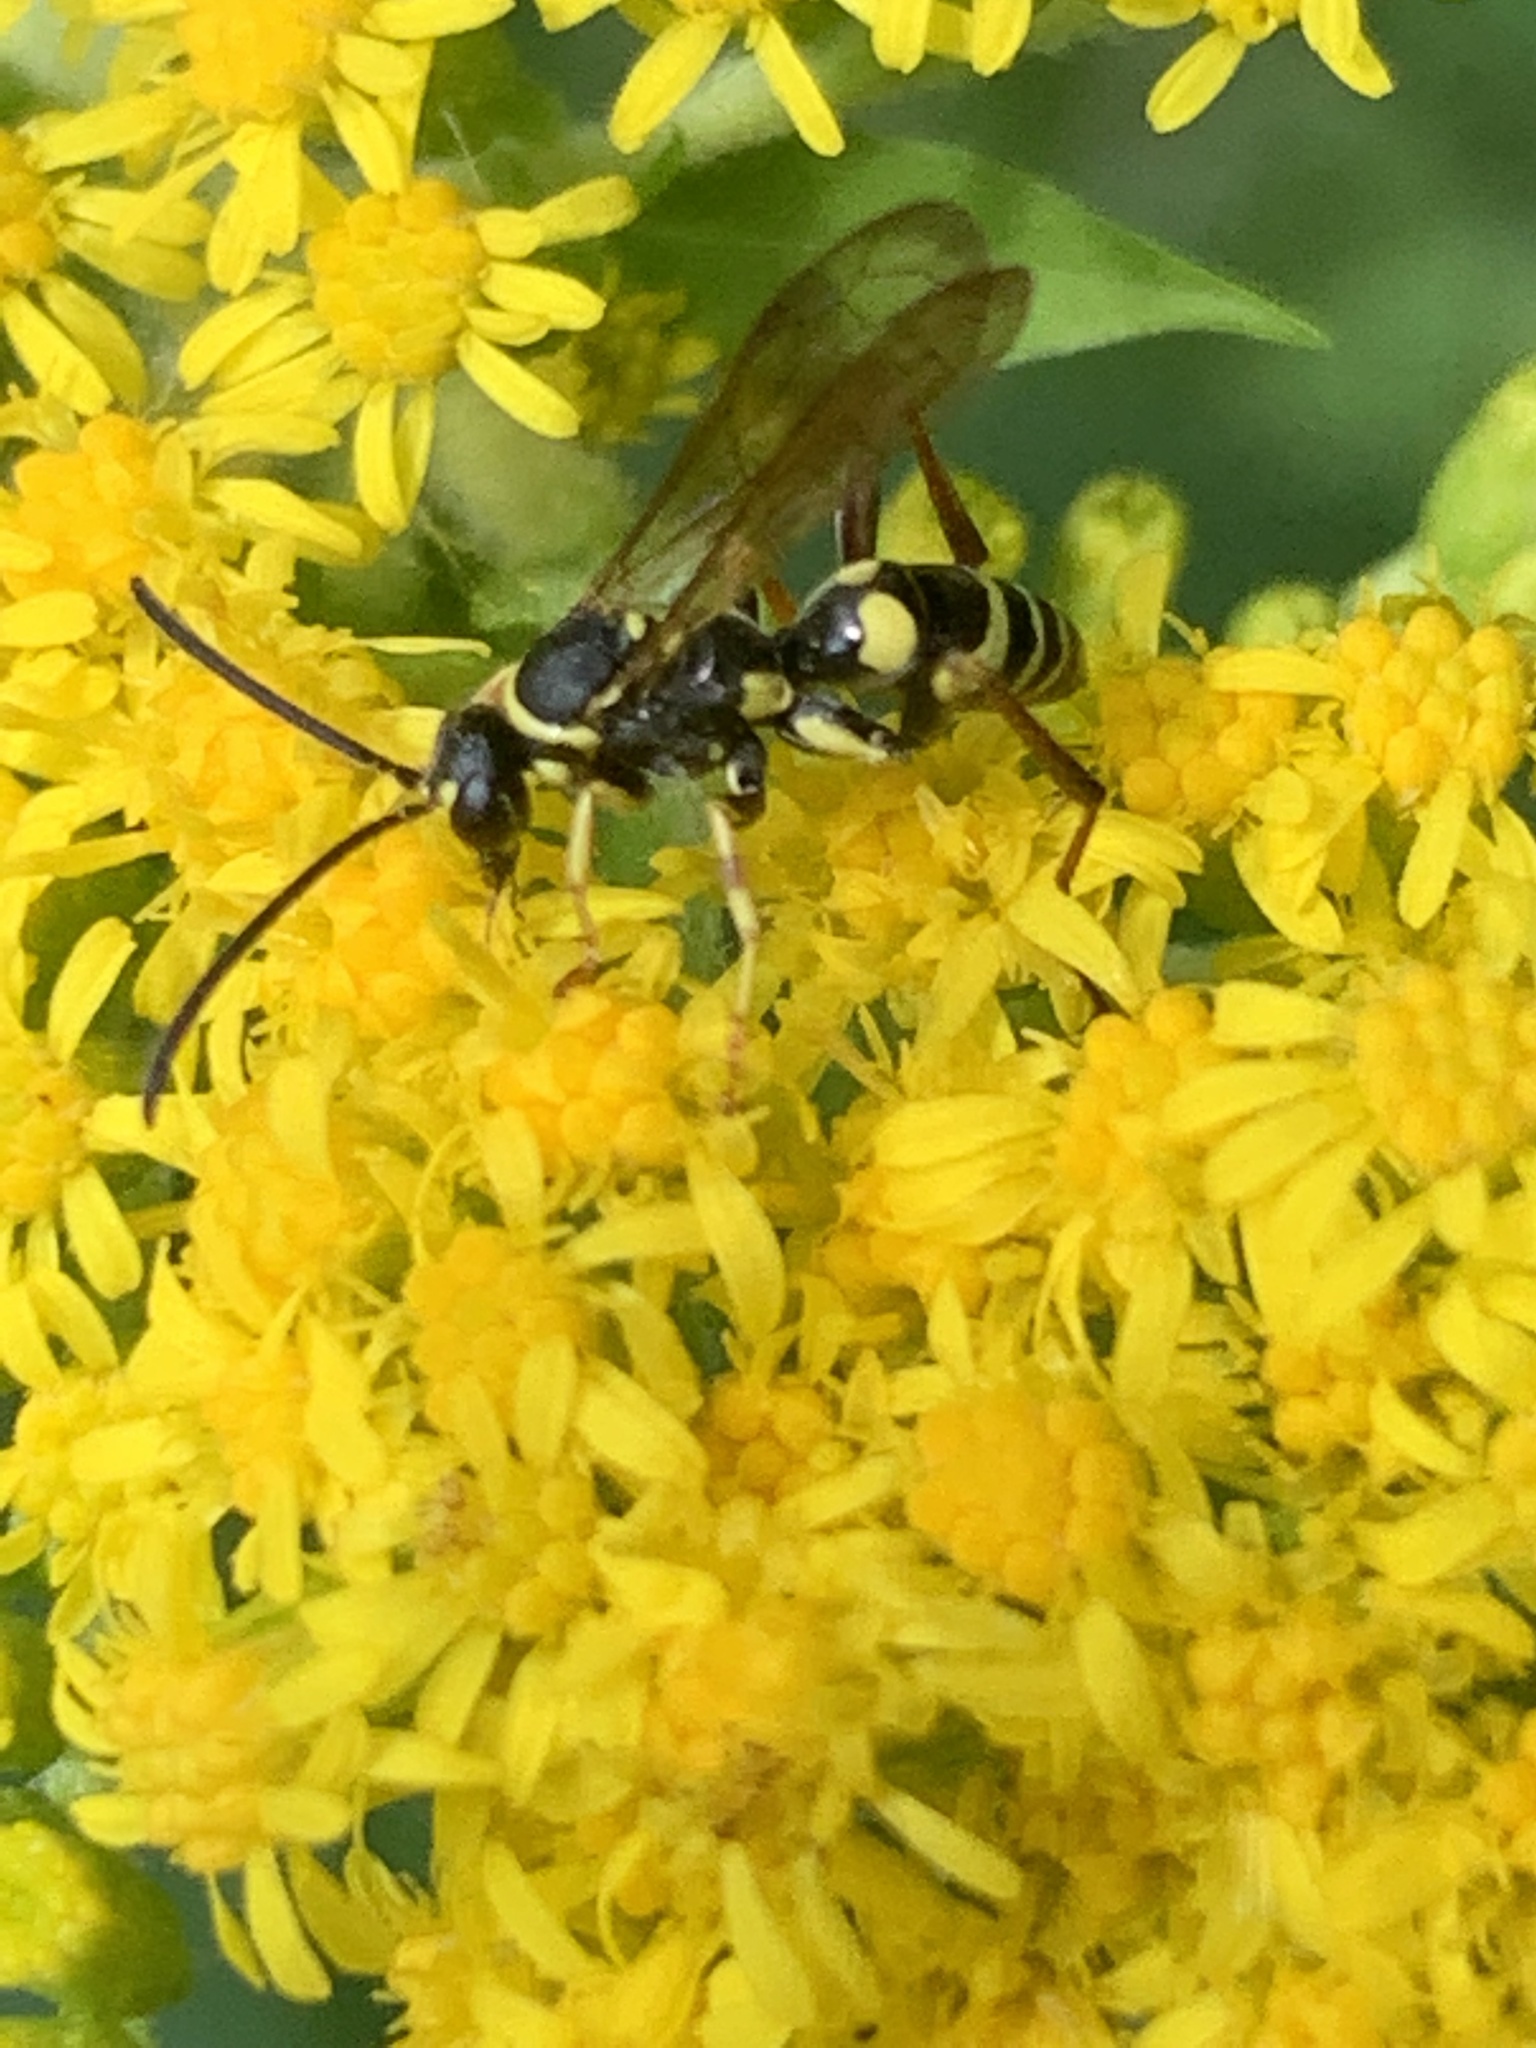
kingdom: Animalia
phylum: Arthropoda
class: Insecta
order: Hymenoptera
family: Pompilidae
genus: Ceropales
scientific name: Ceropales maculata
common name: Spider wasp
